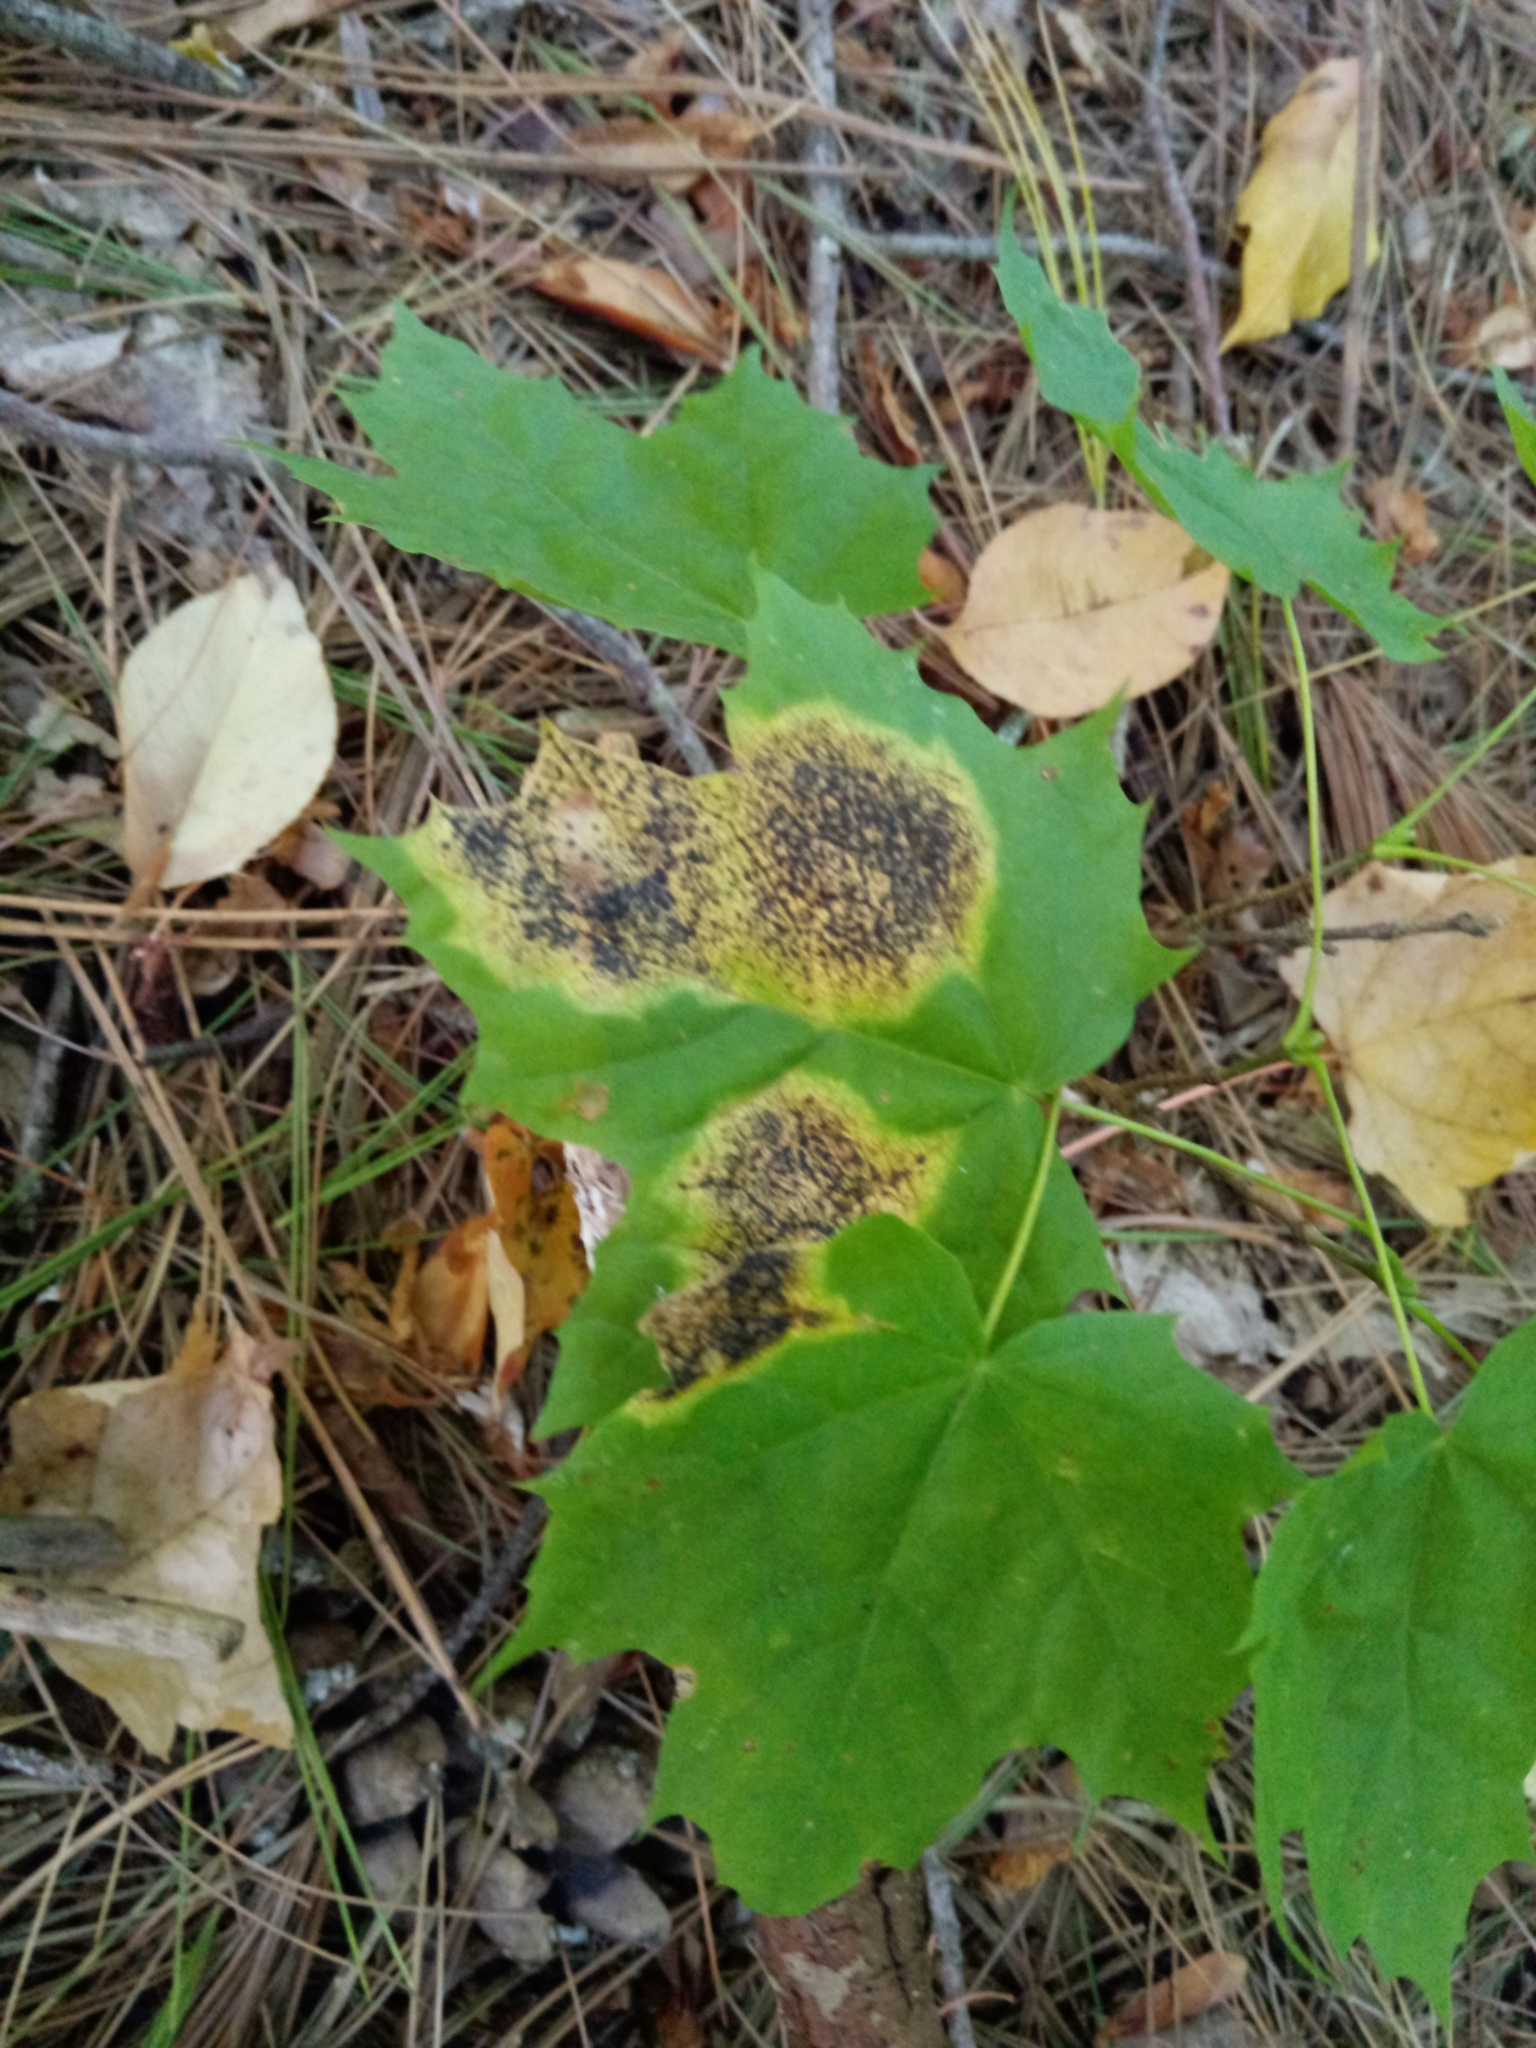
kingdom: Fungi
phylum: Ascomycota
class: Leotiomycetes
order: Rhytismatales
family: Rhytismataceae
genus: Rhytisma
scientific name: Rhytisma acerinum
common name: European tar spot
